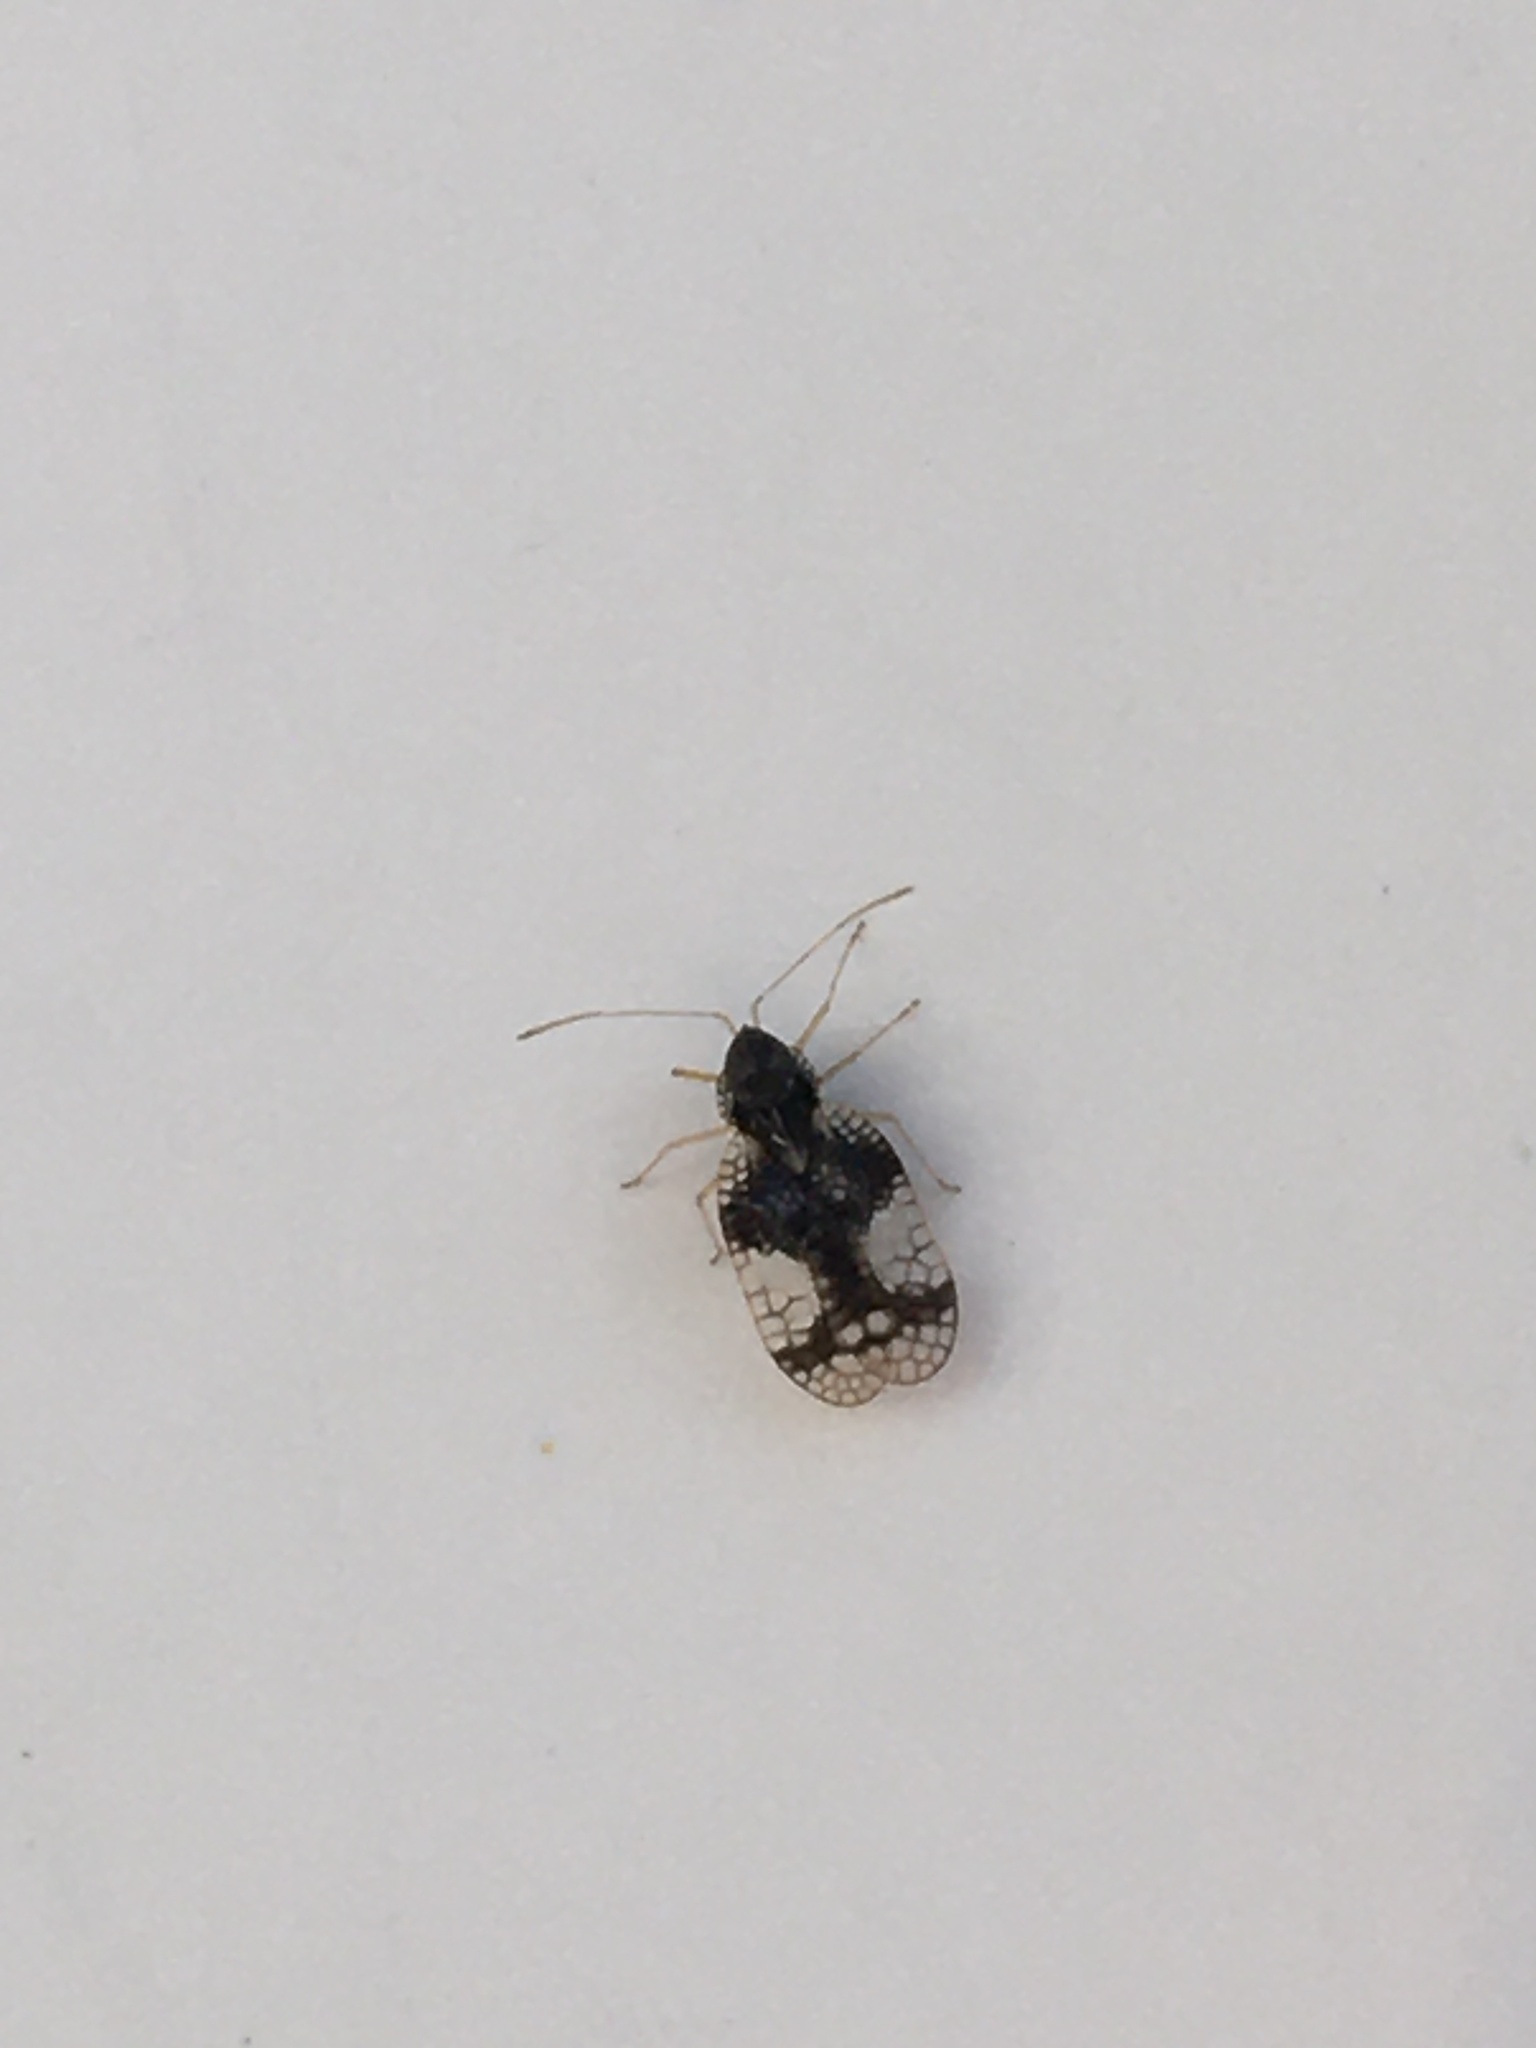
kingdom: Animalia
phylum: Arthropoda
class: Insecta
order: Hemiptera
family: Tingidae
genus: Stephanitis
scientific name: Stephanitis takeyai
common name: Andromeda lacebug
